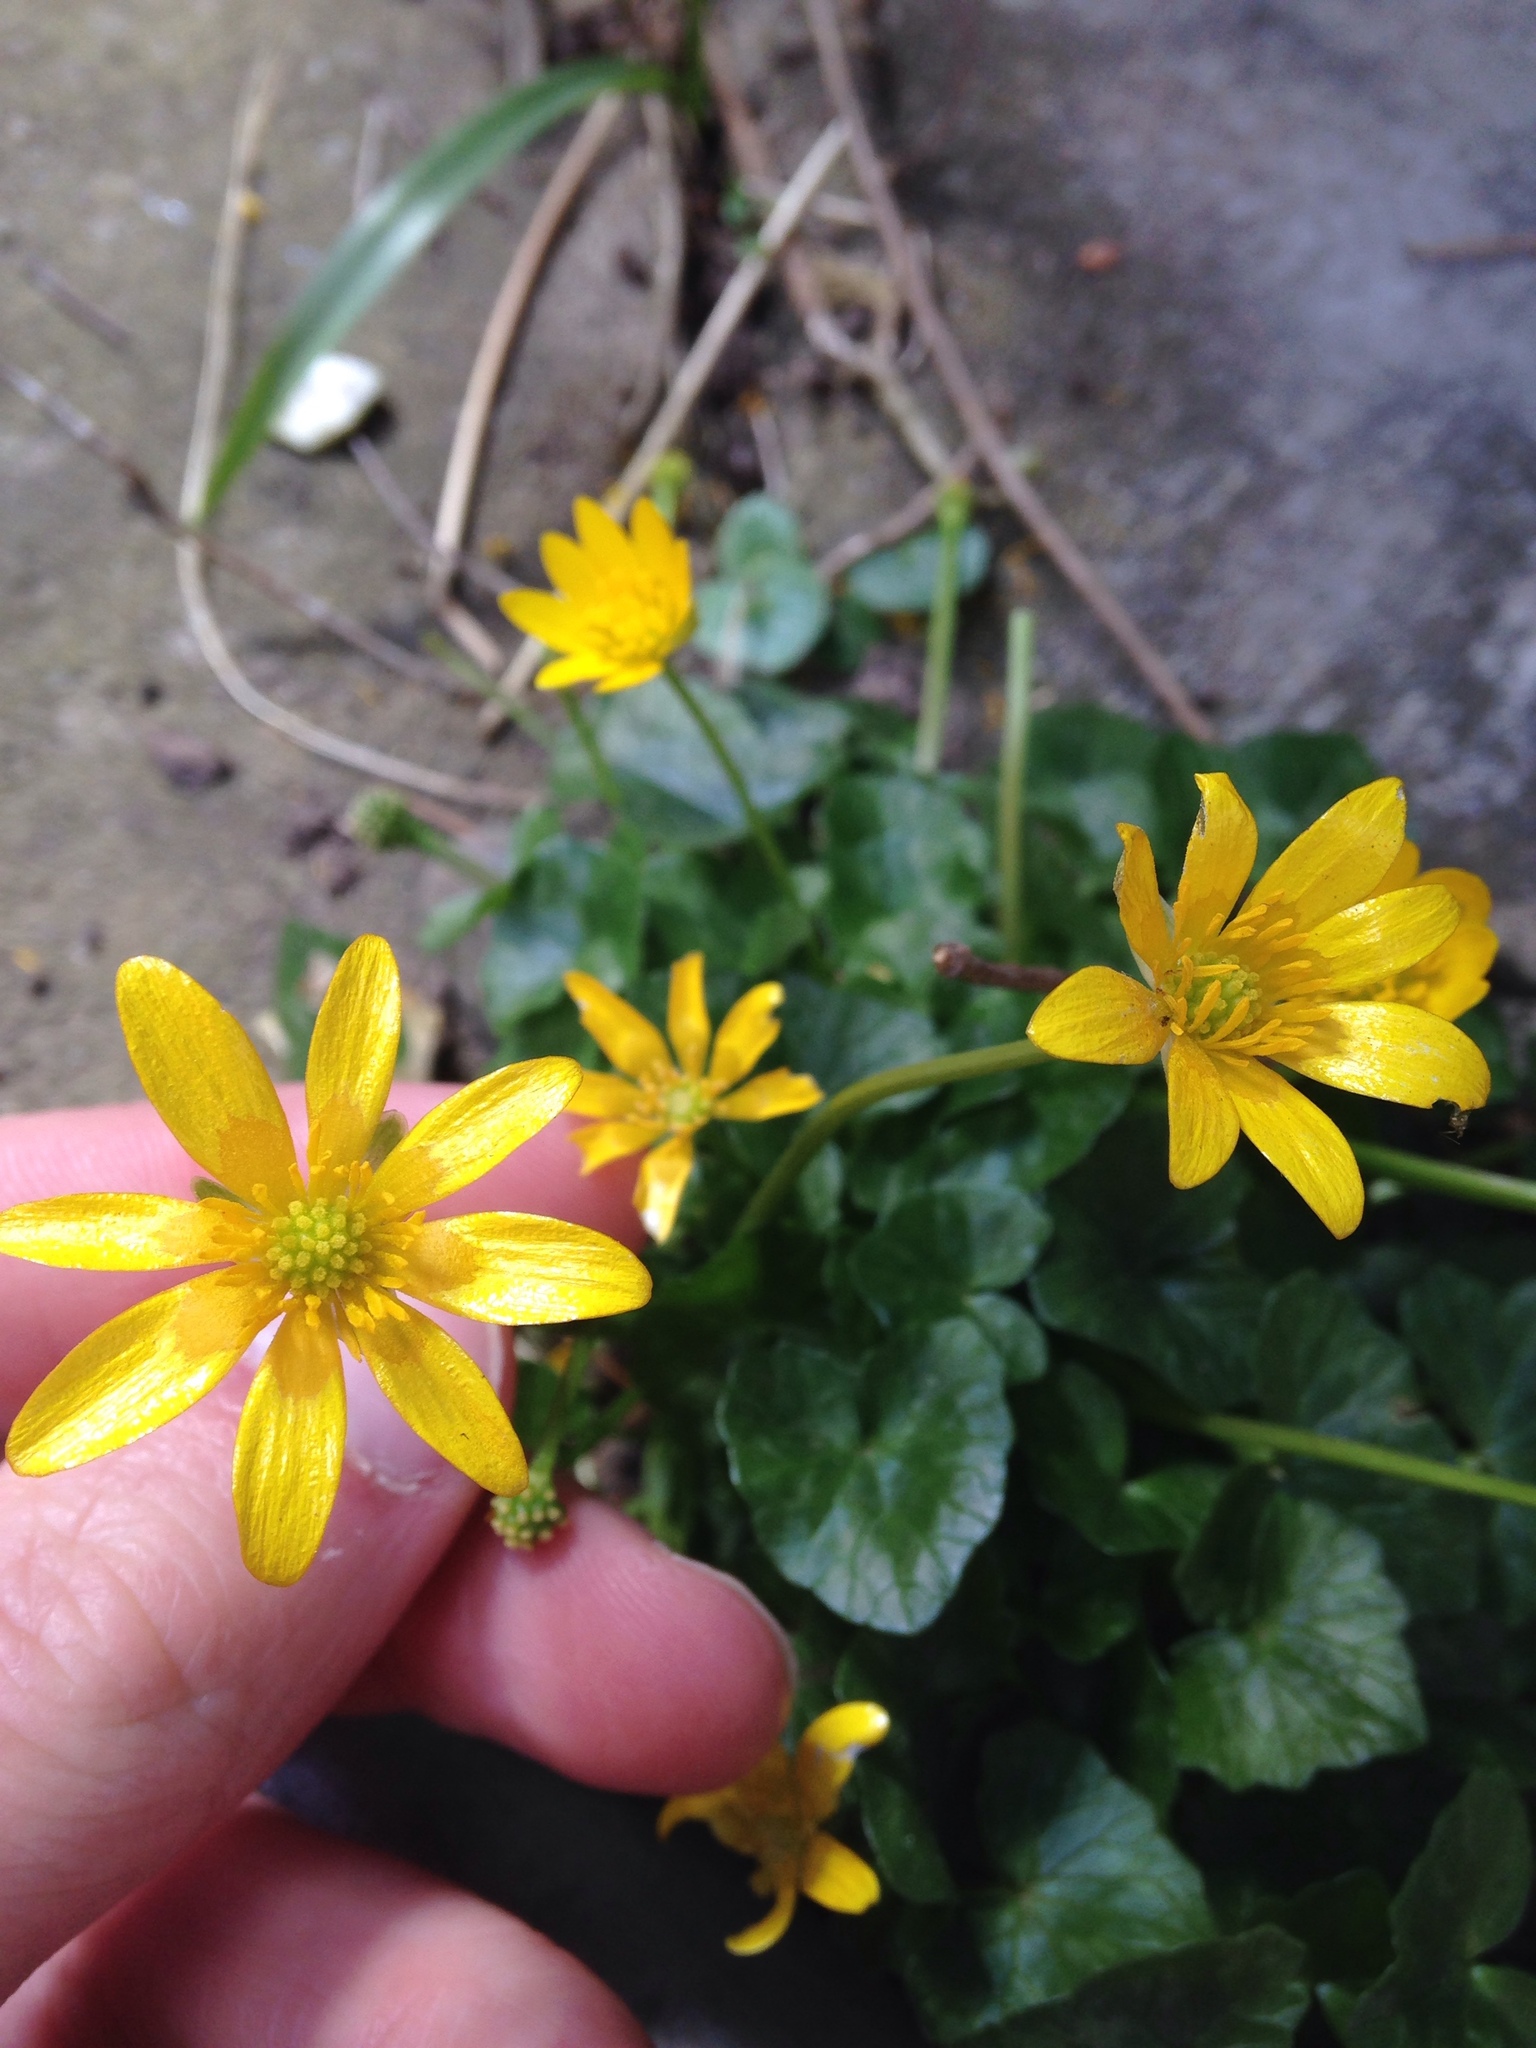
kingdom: Plantae
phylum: Tracheophyta
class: Magnoliopsida
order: Ranunculales
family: Ranunculaceae
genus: Ficaria
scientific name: Ficaria verna
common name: Lesser celandine
